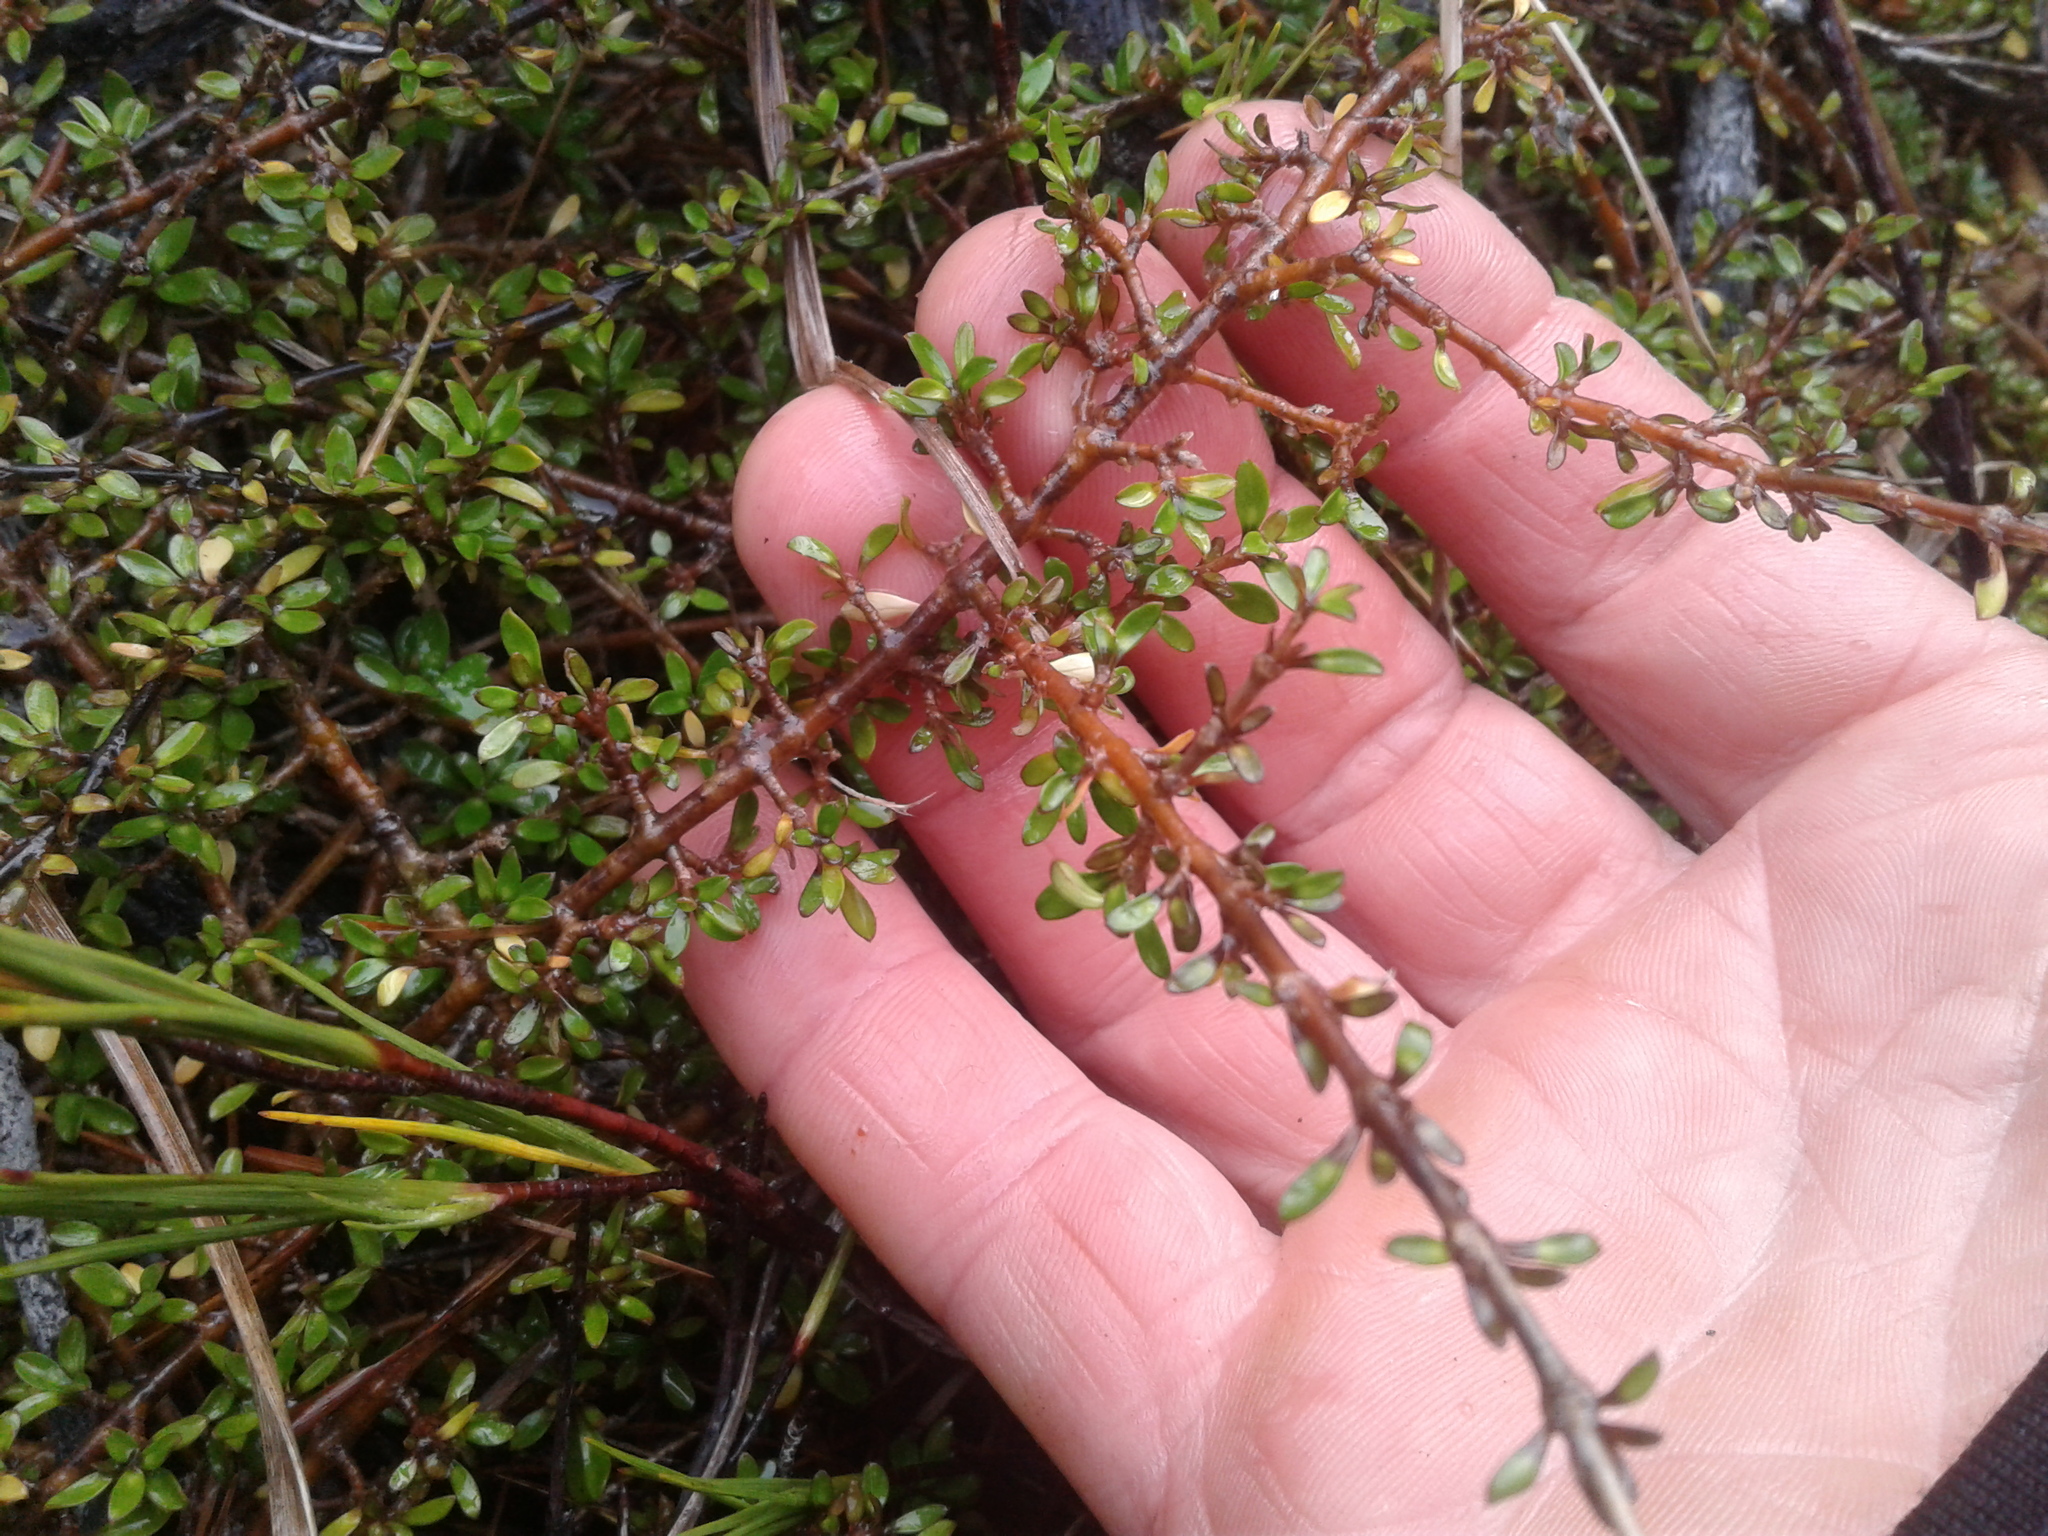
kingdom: Plantae
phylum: Tracheophyta
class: Magnoliopsida
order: Gentianales
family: Rubiaceae
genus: Coprosma
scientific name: Coprosma depressa
